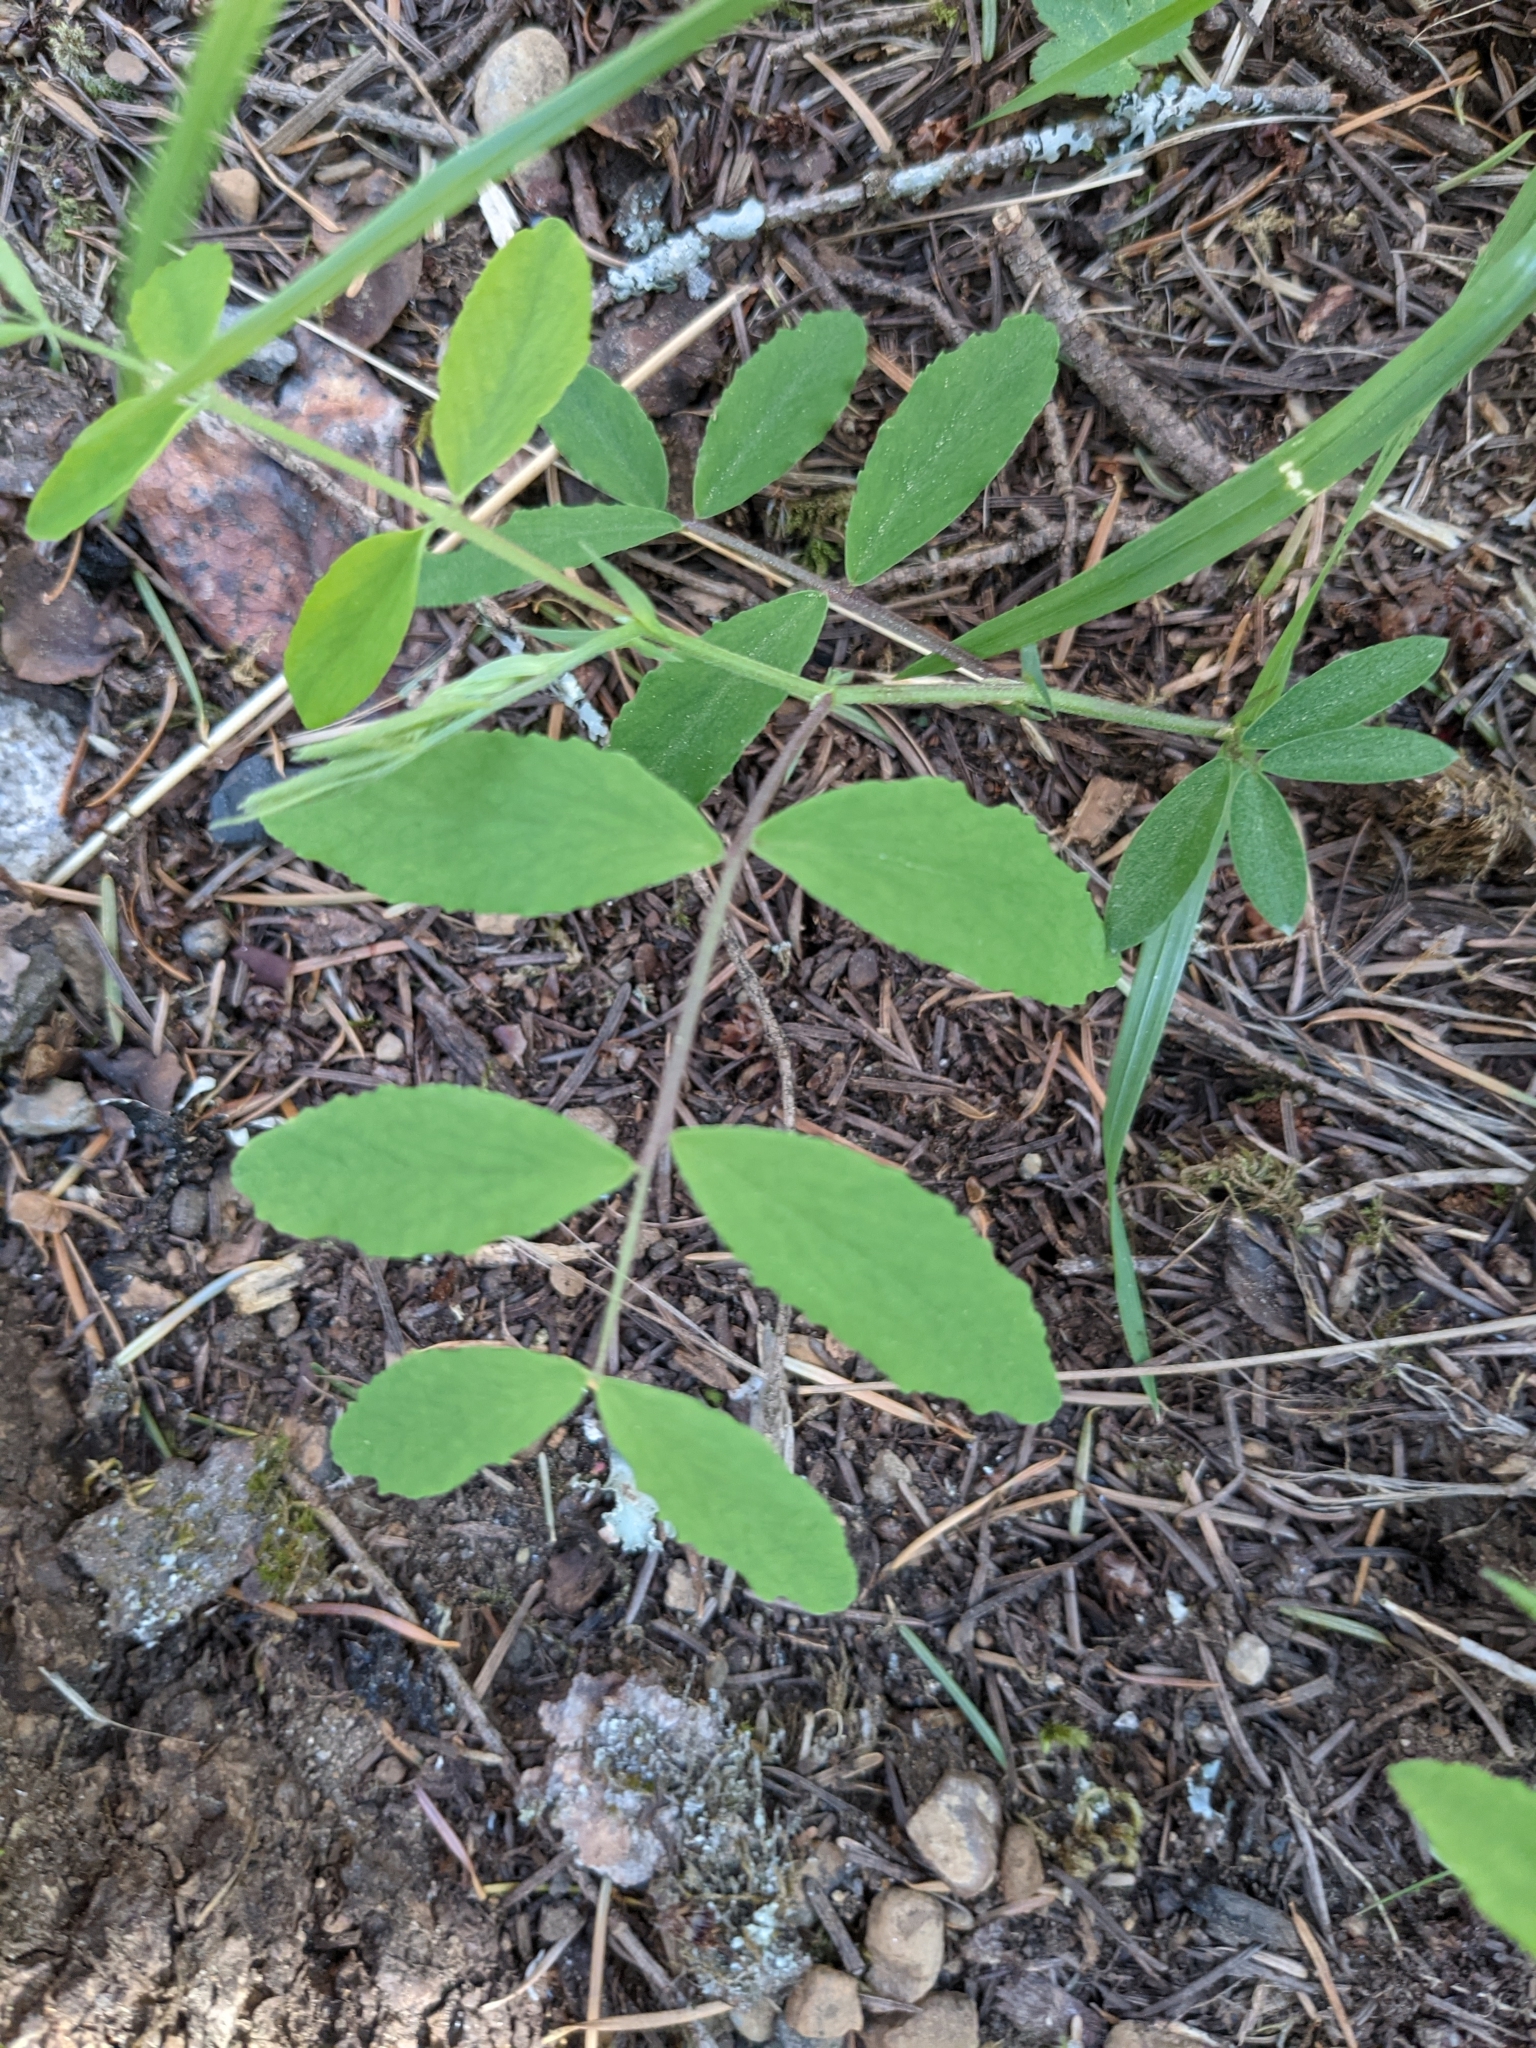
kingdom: Plantae
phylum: Tracheophyta
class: Magnoliopsida
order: Fabales
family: Fabaceae
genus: Lathyrus
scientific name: Lathyrus nevadensis
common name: Sierra nevada peavine
